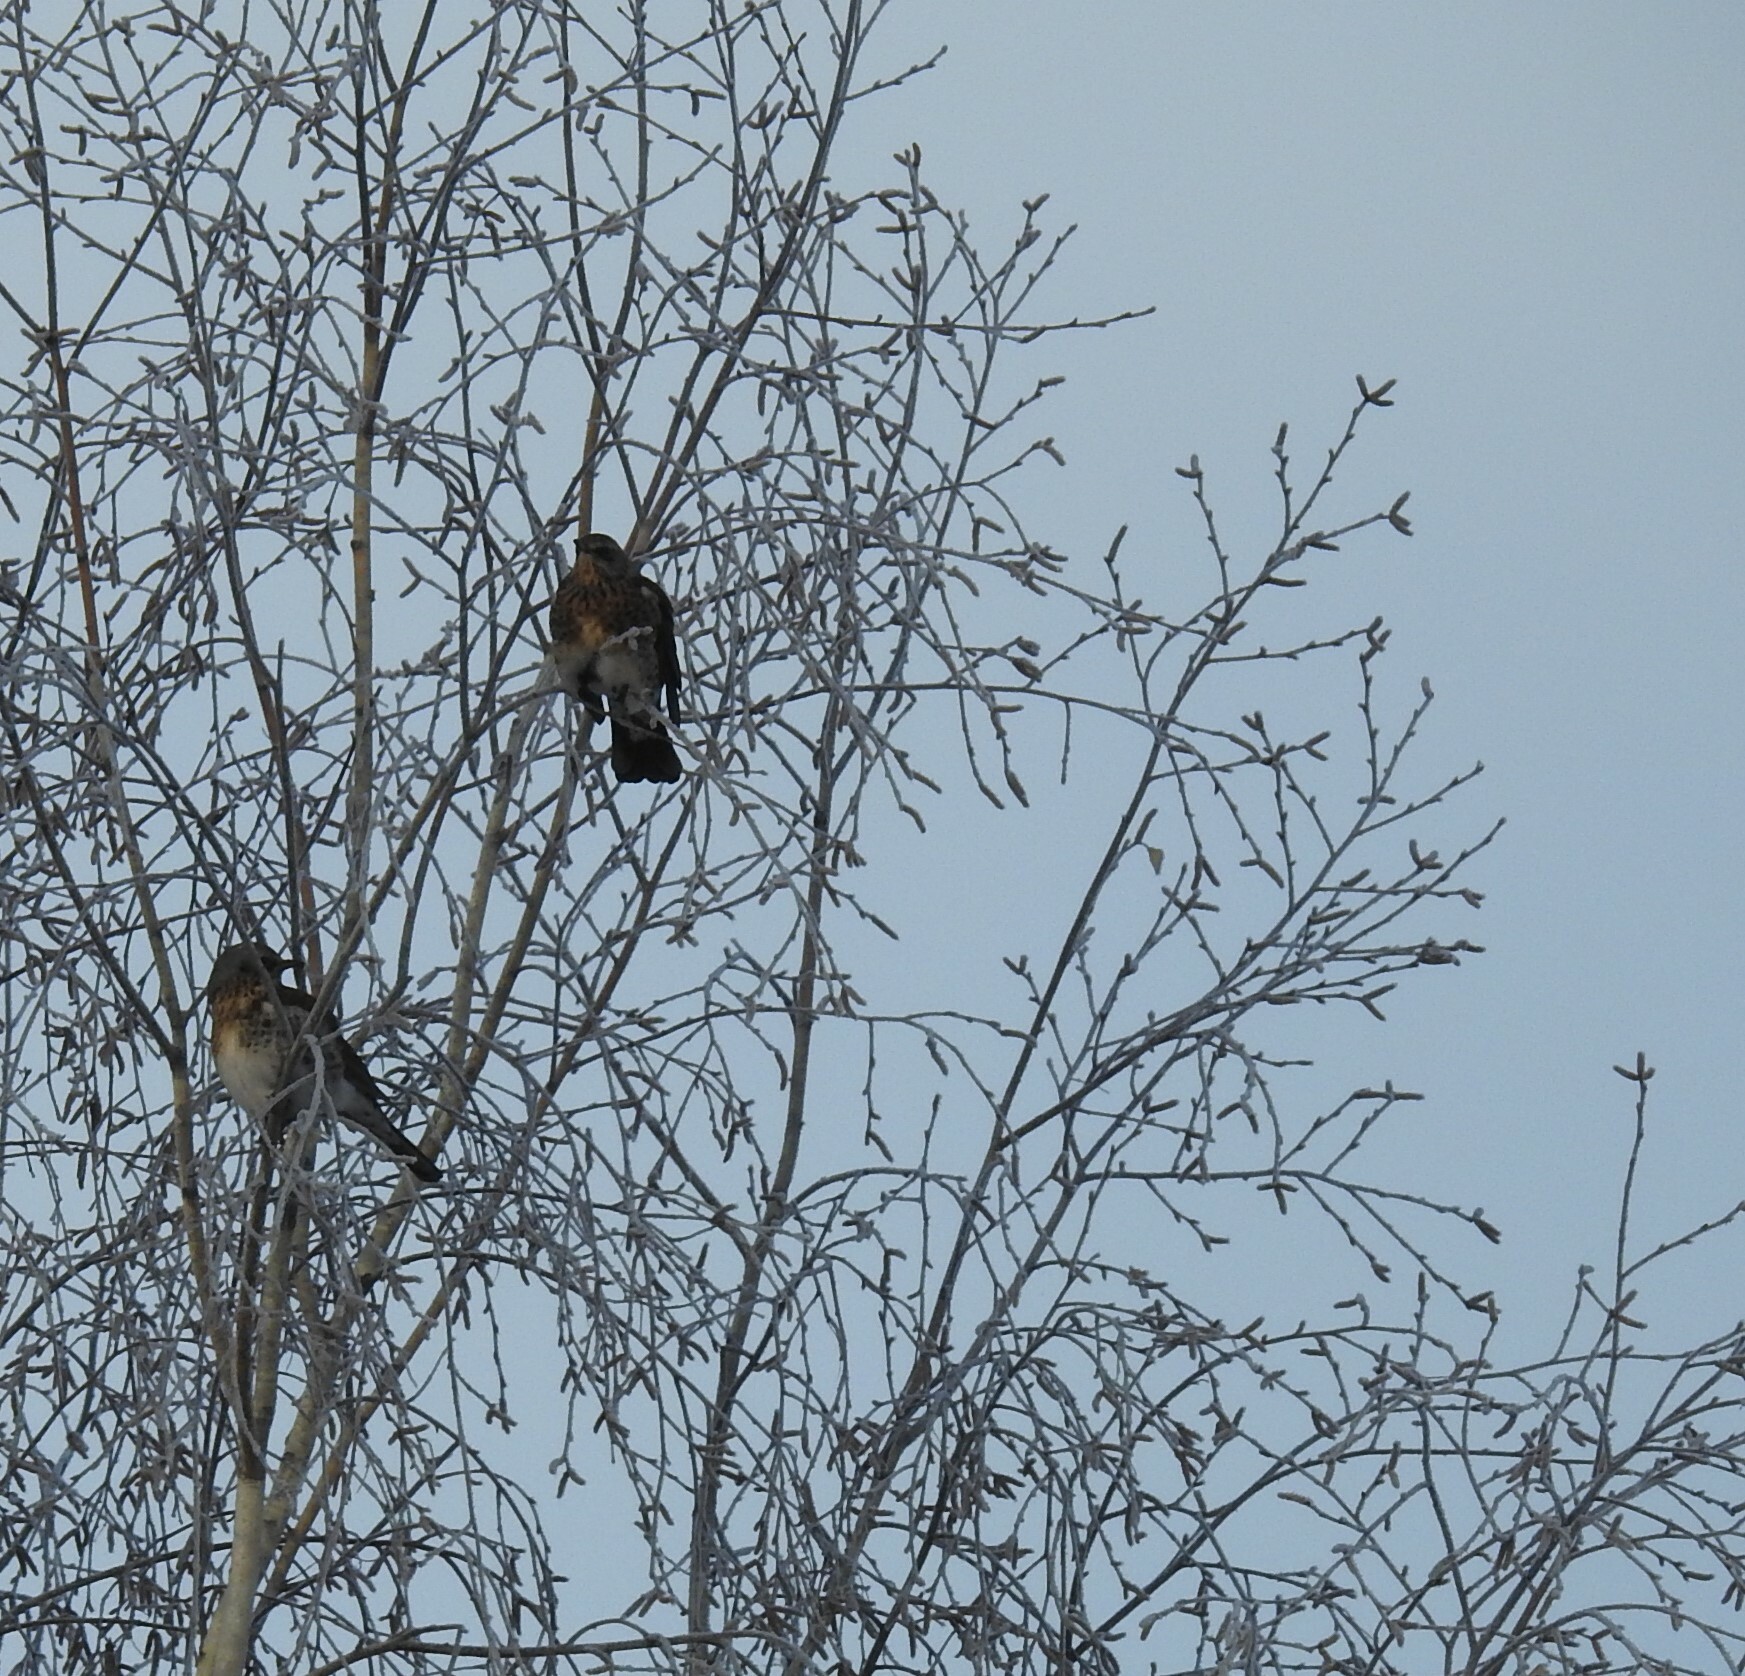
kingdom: Animalia
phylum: Chordata
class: Aves
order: Passeriformes
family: Turdidae
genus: Turdus
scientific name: Turdus pilaris
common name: Fieldfare
